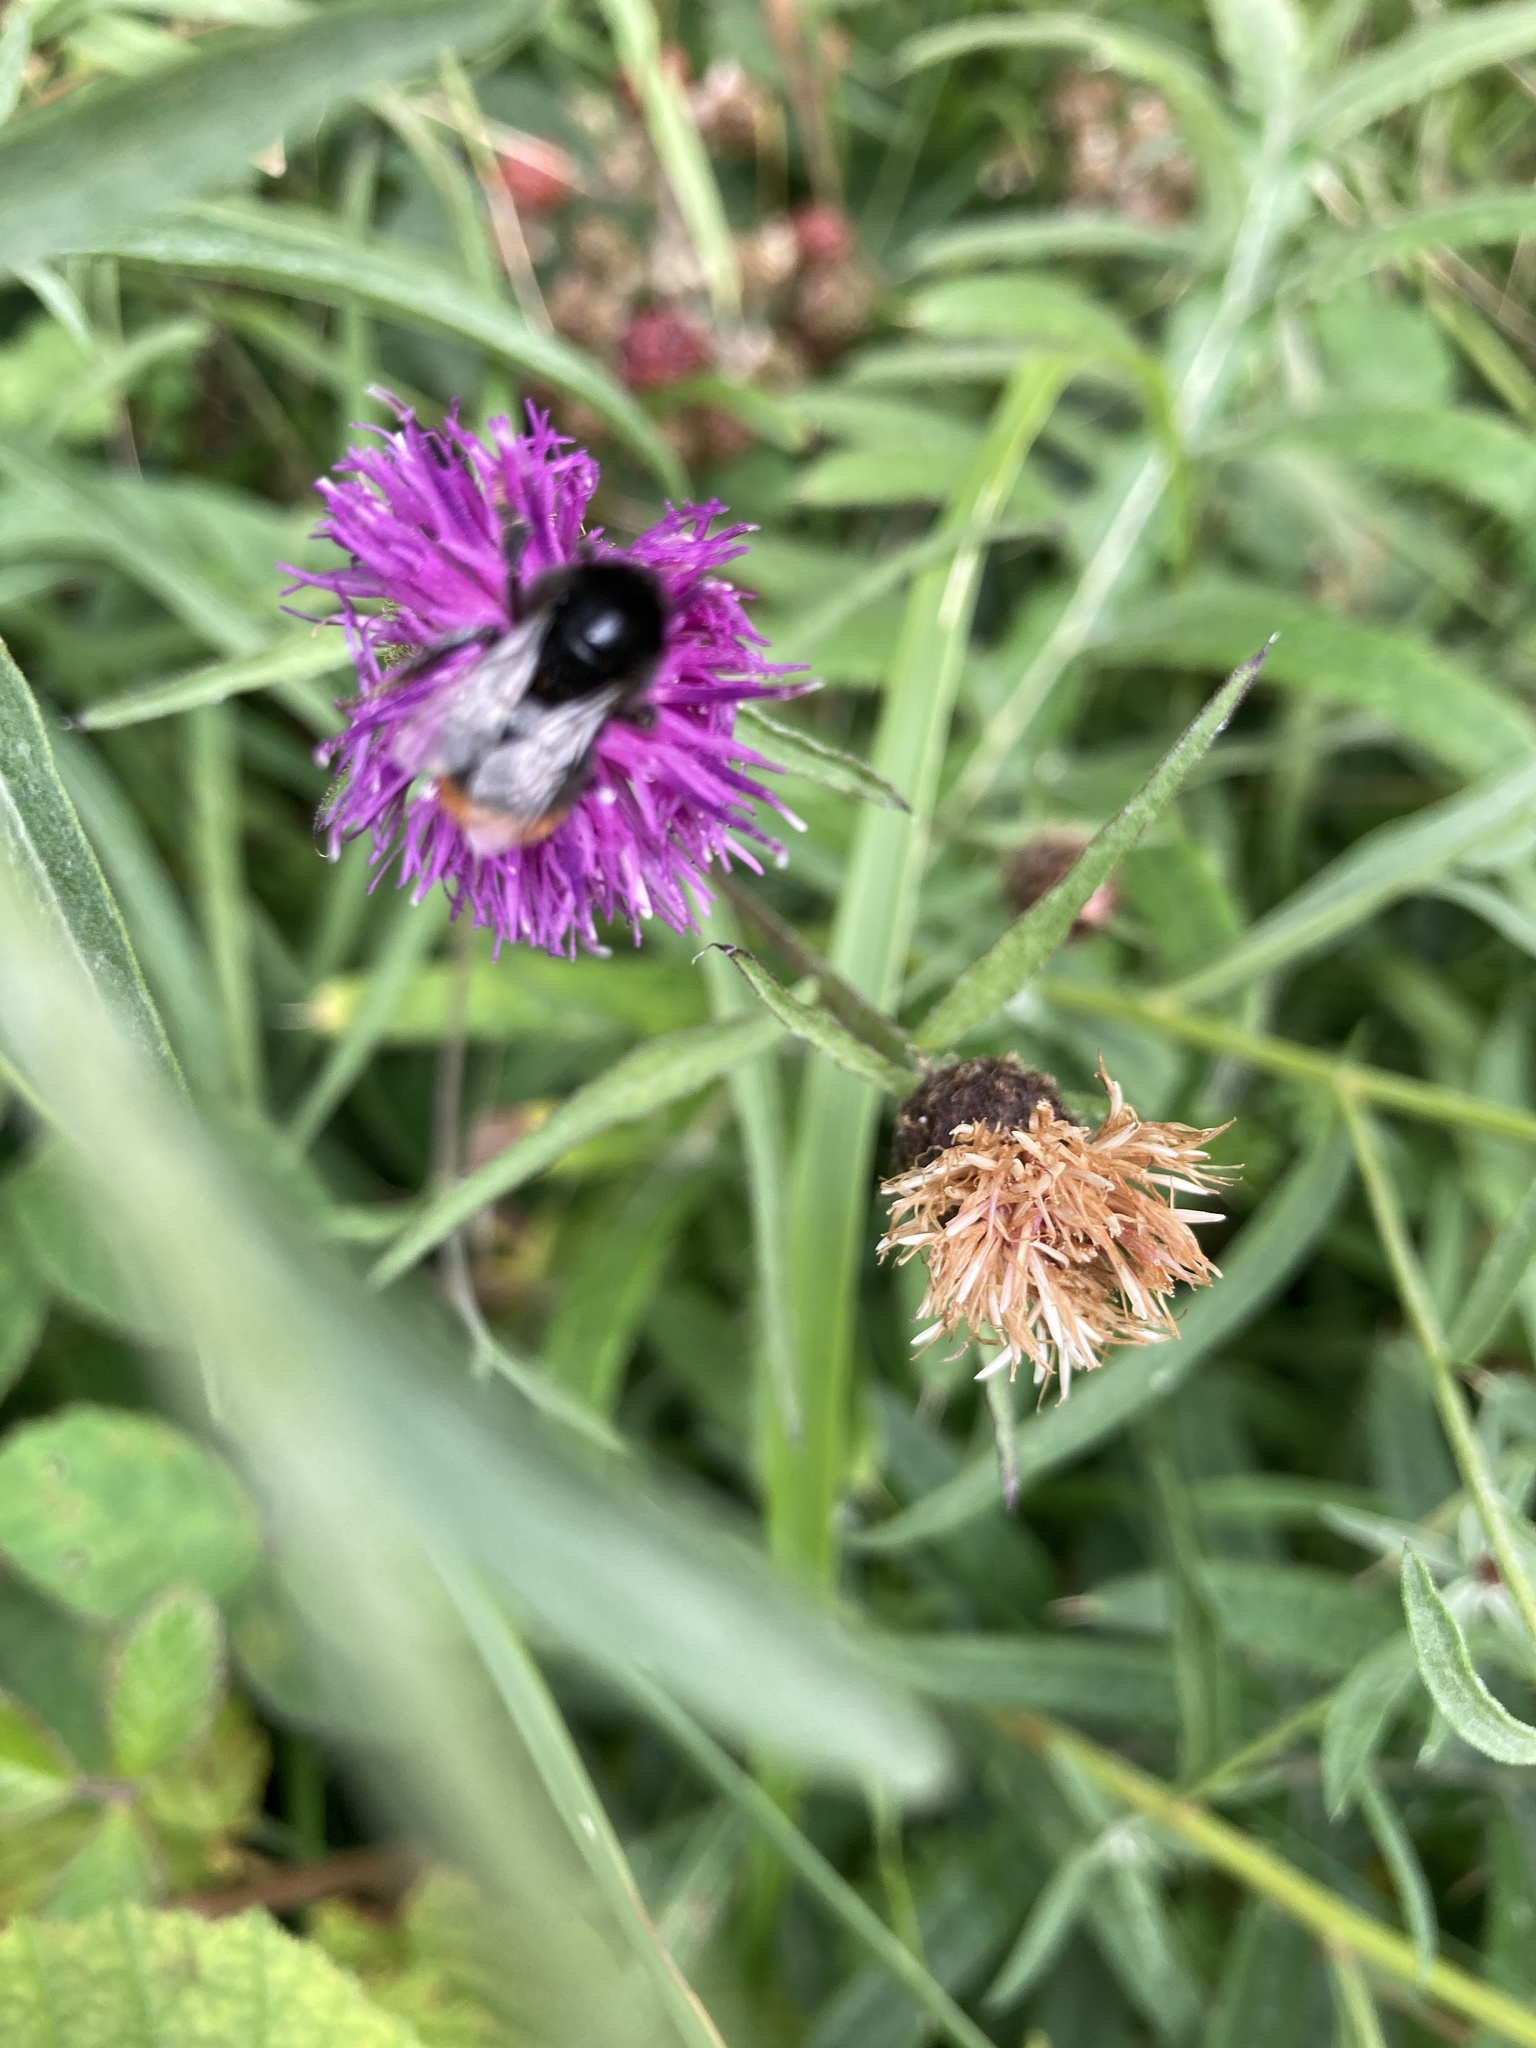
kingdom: Animalia
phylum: Arthropoda
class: Insecta
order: Hymenoptera
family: Apidae
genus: Bombus
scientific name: Bombus lapidarius
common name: Large red-tailed humble-bee
